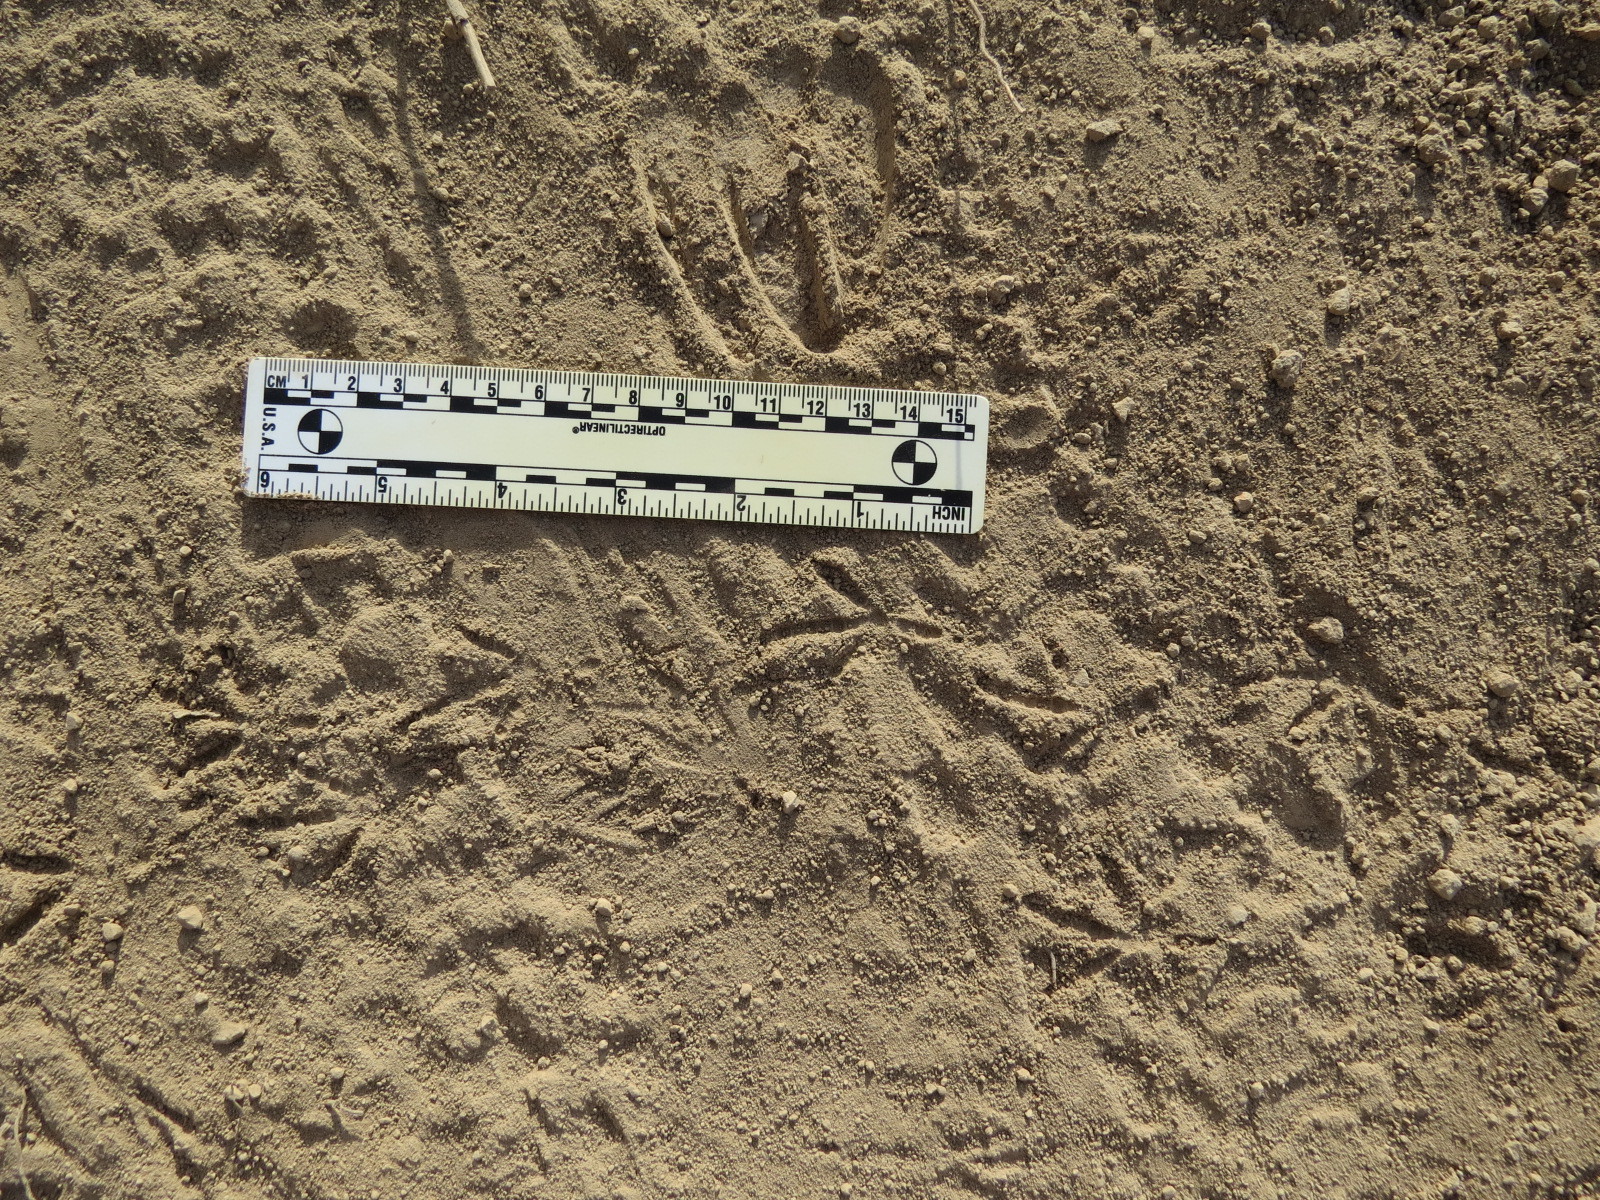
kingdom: Animalia
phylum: Chordata
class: Aves
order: Columbiformes
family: Columbidae
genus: Zenaida
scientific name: Zenaida macroura
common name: Mourning dove
